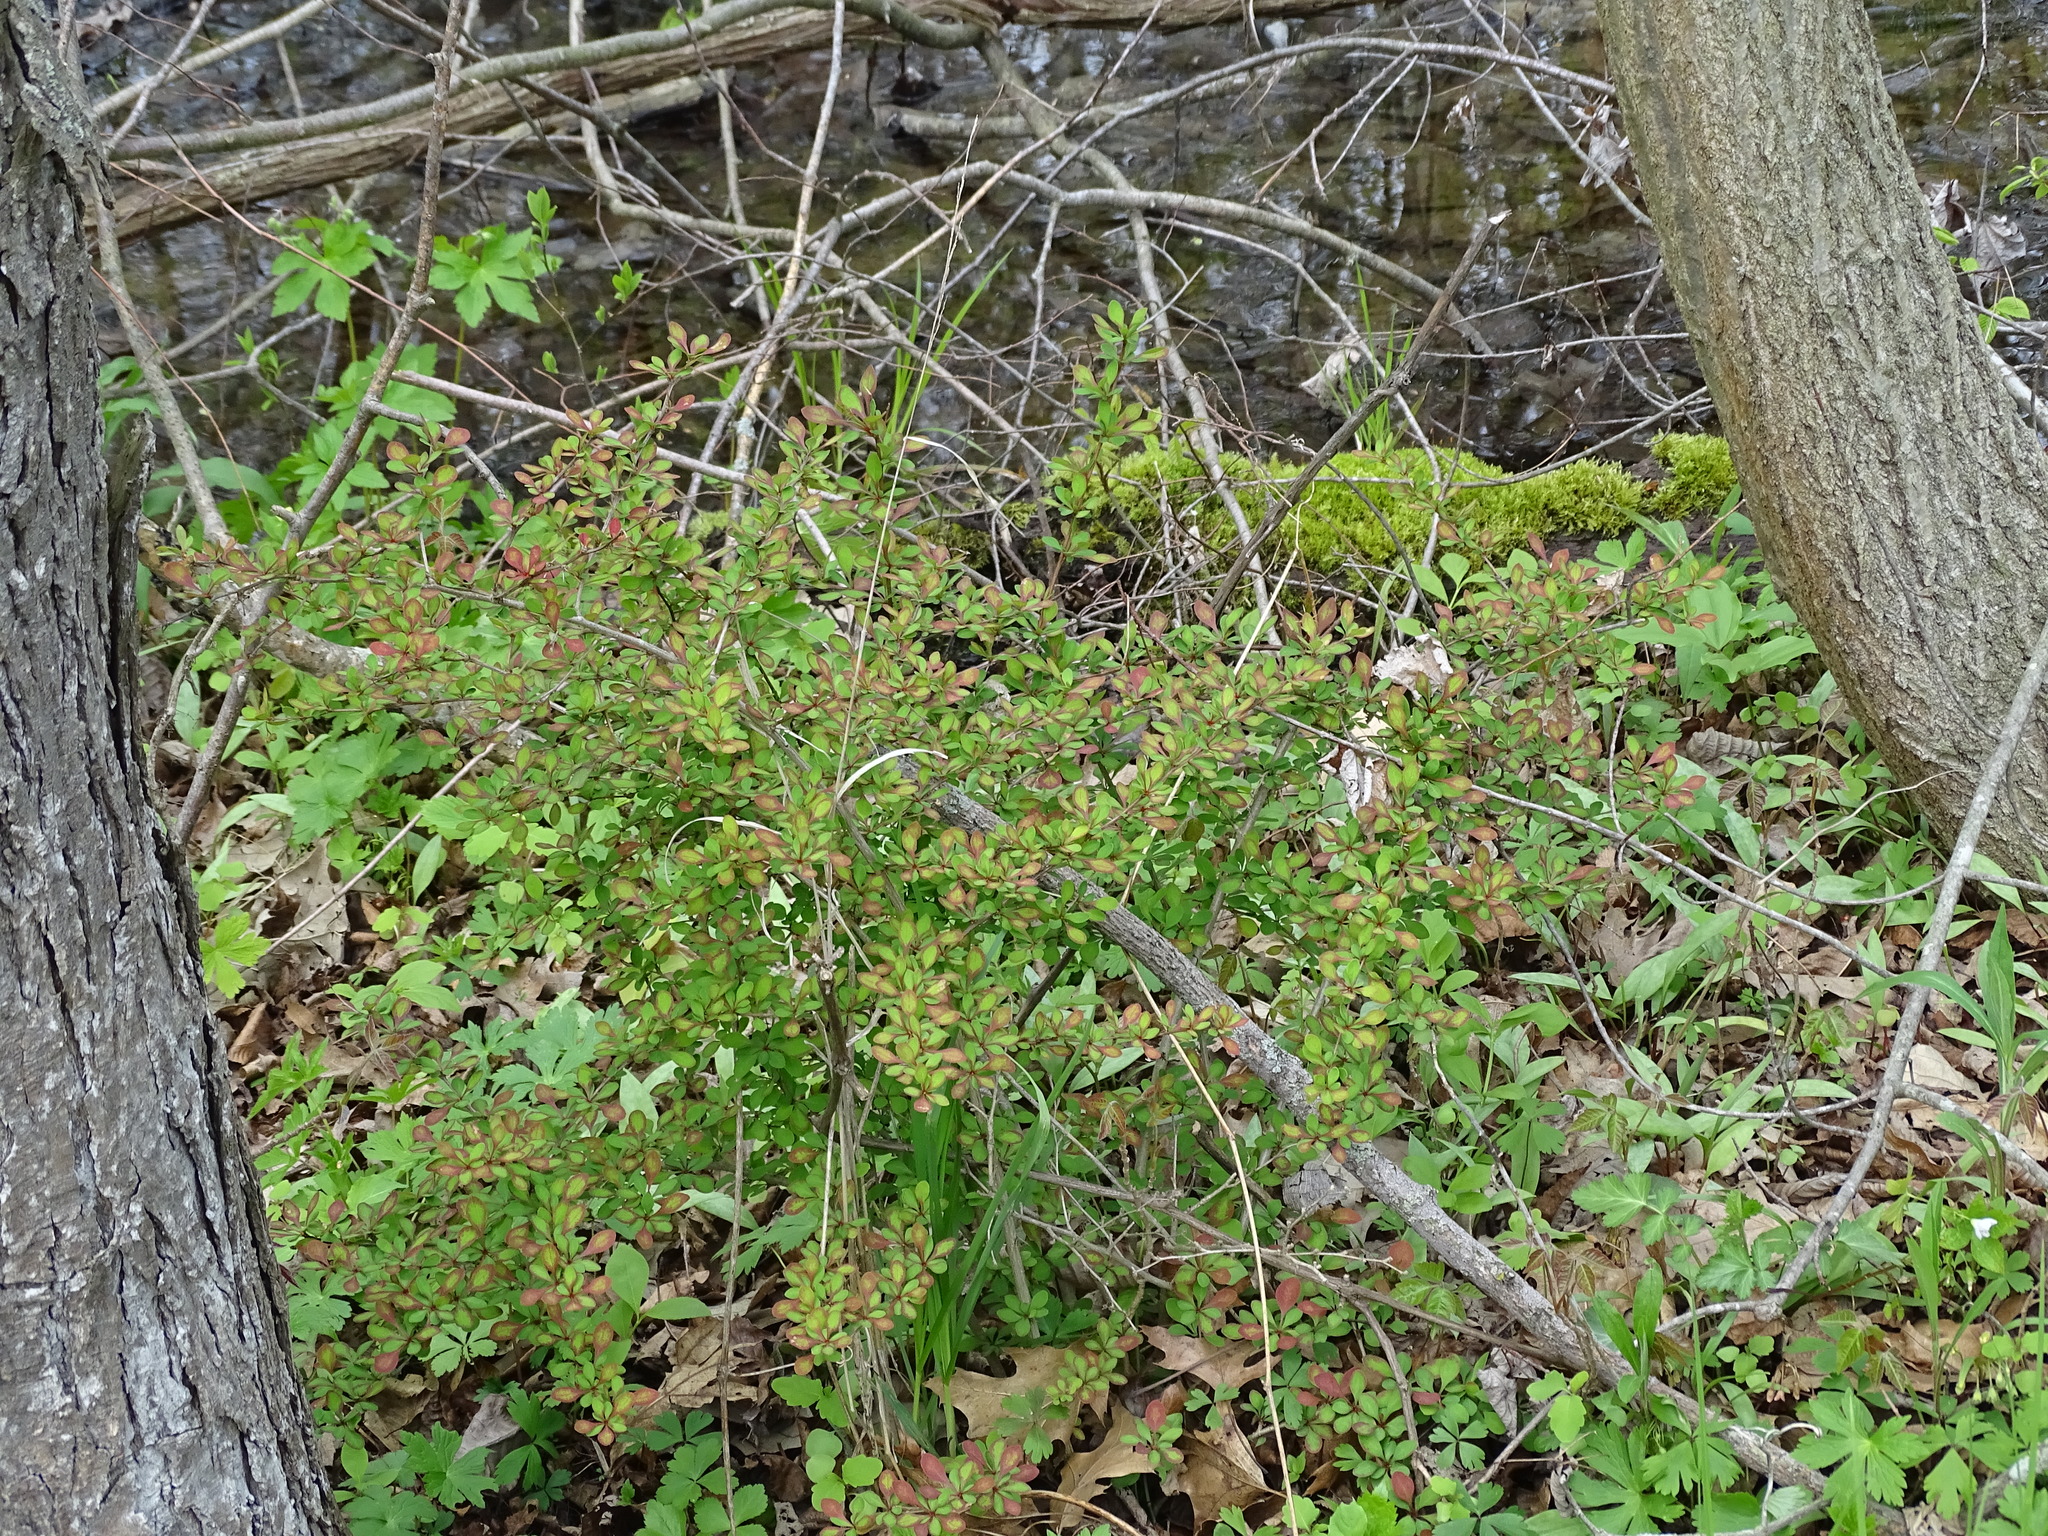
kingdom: Plantae
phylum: Tracheophyta
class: Magnoliopsida
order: Ranunculales
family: Berberidaceae
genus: Berberis
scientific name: Berberis thunbergii
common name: Japanese barberry
